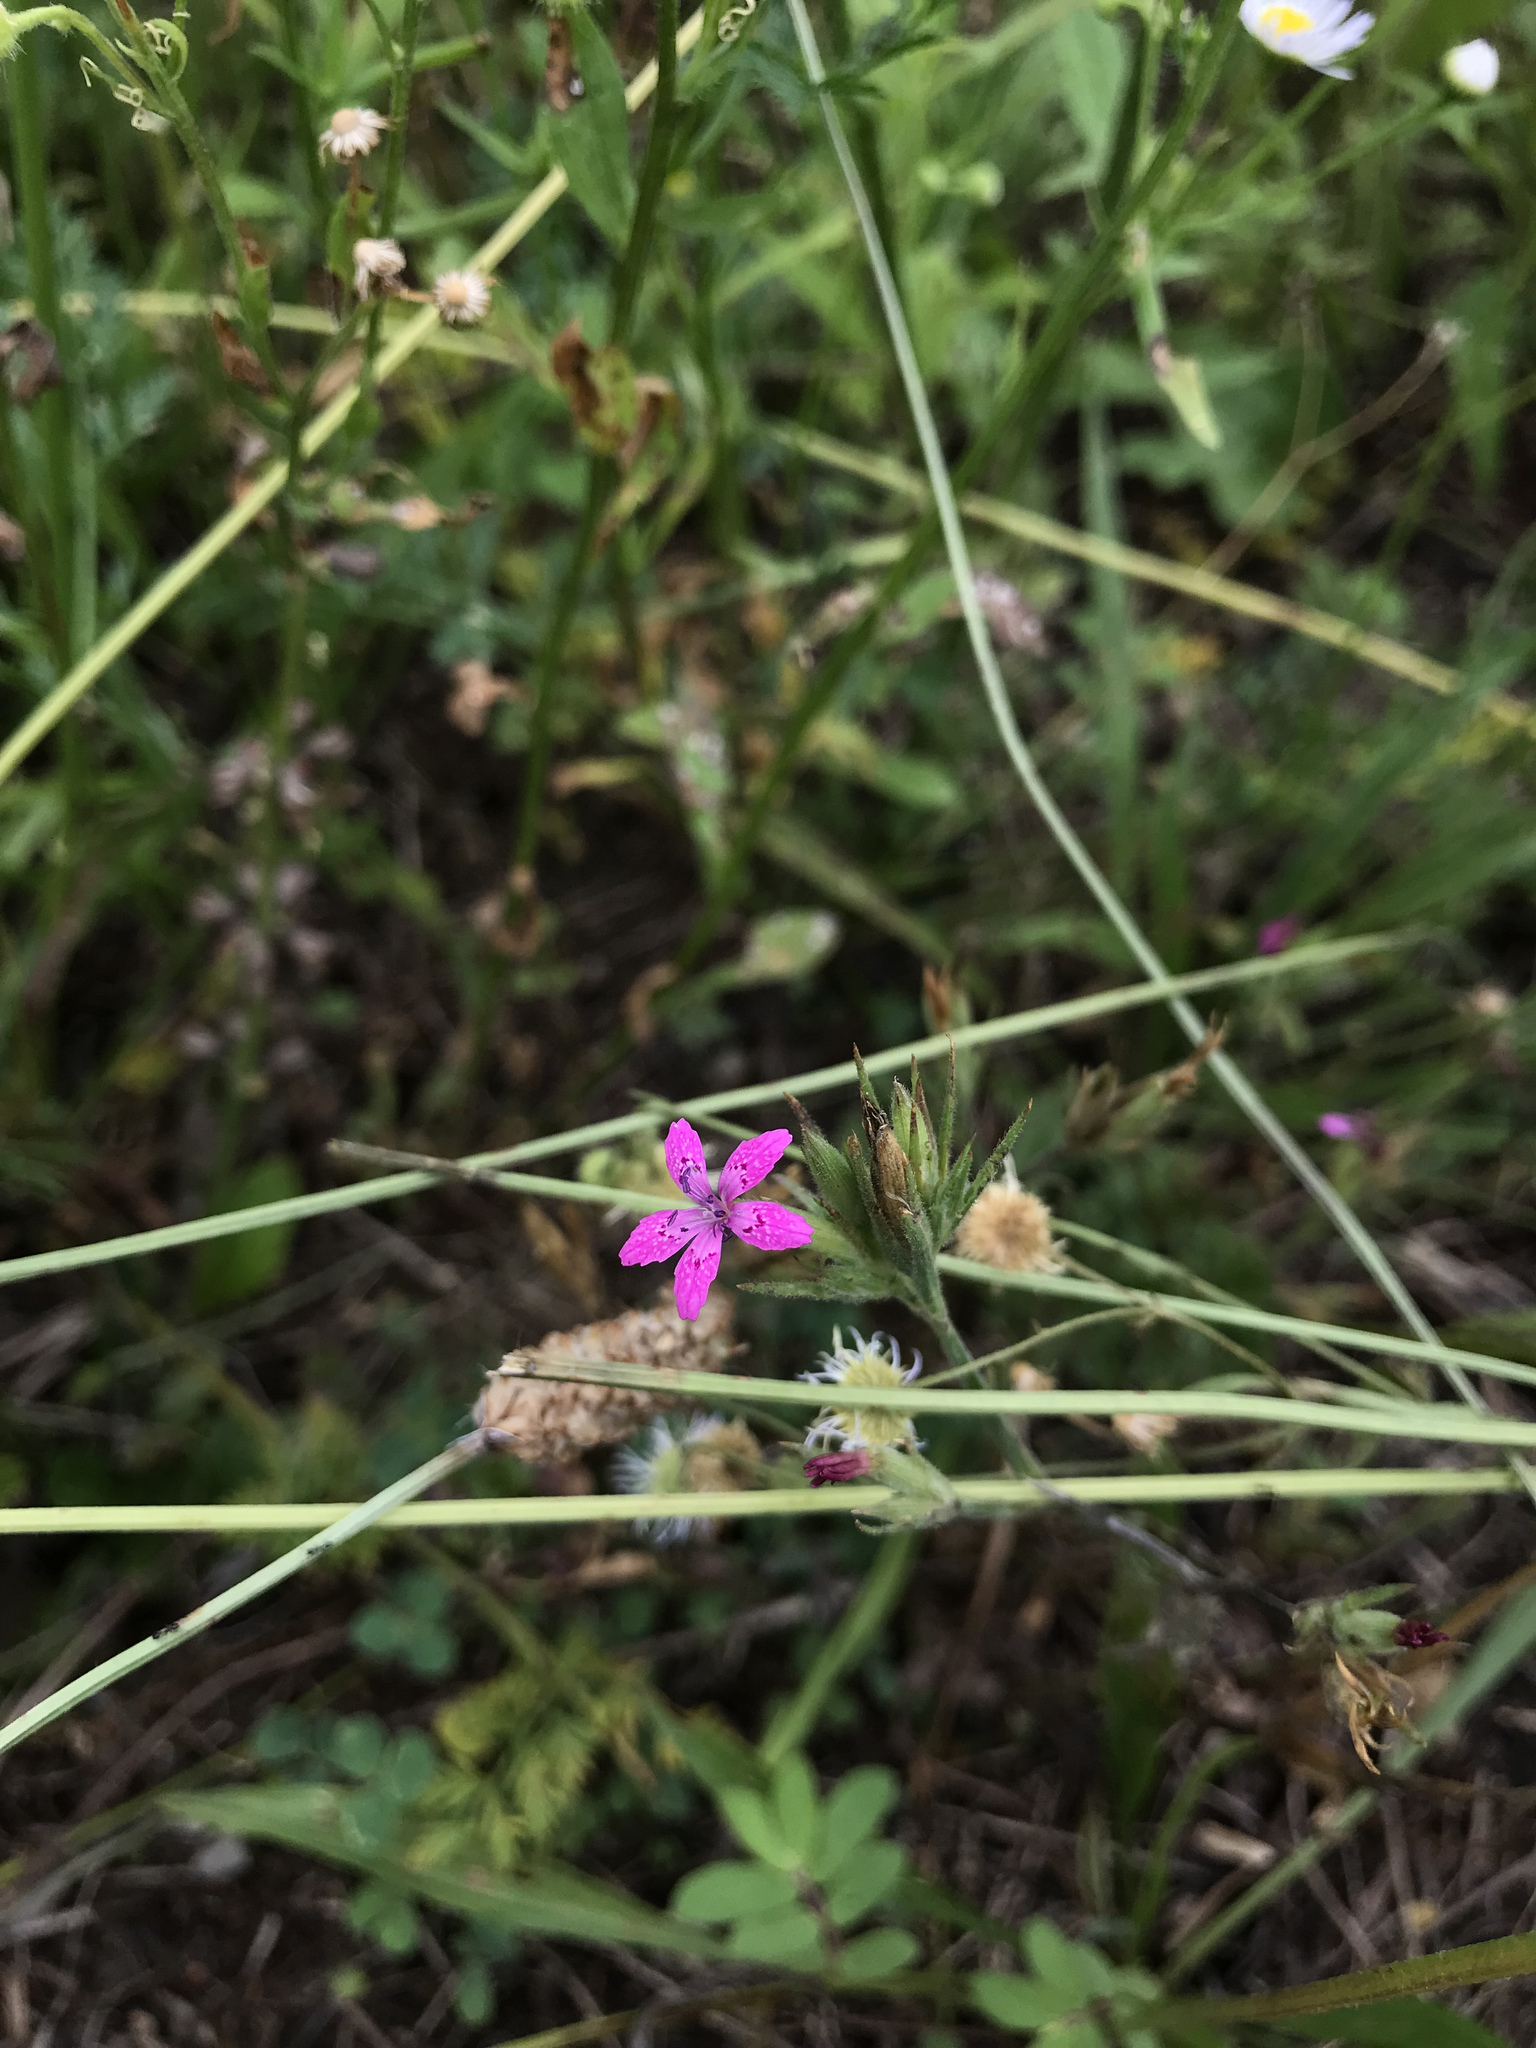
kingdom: Plantae
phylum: Tracheophyta
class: Magnoliopsida
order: Caryophyllales
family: Caryophyllaceae
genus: Dianthus
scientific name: Dianthus armeria
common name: Deptford pink
